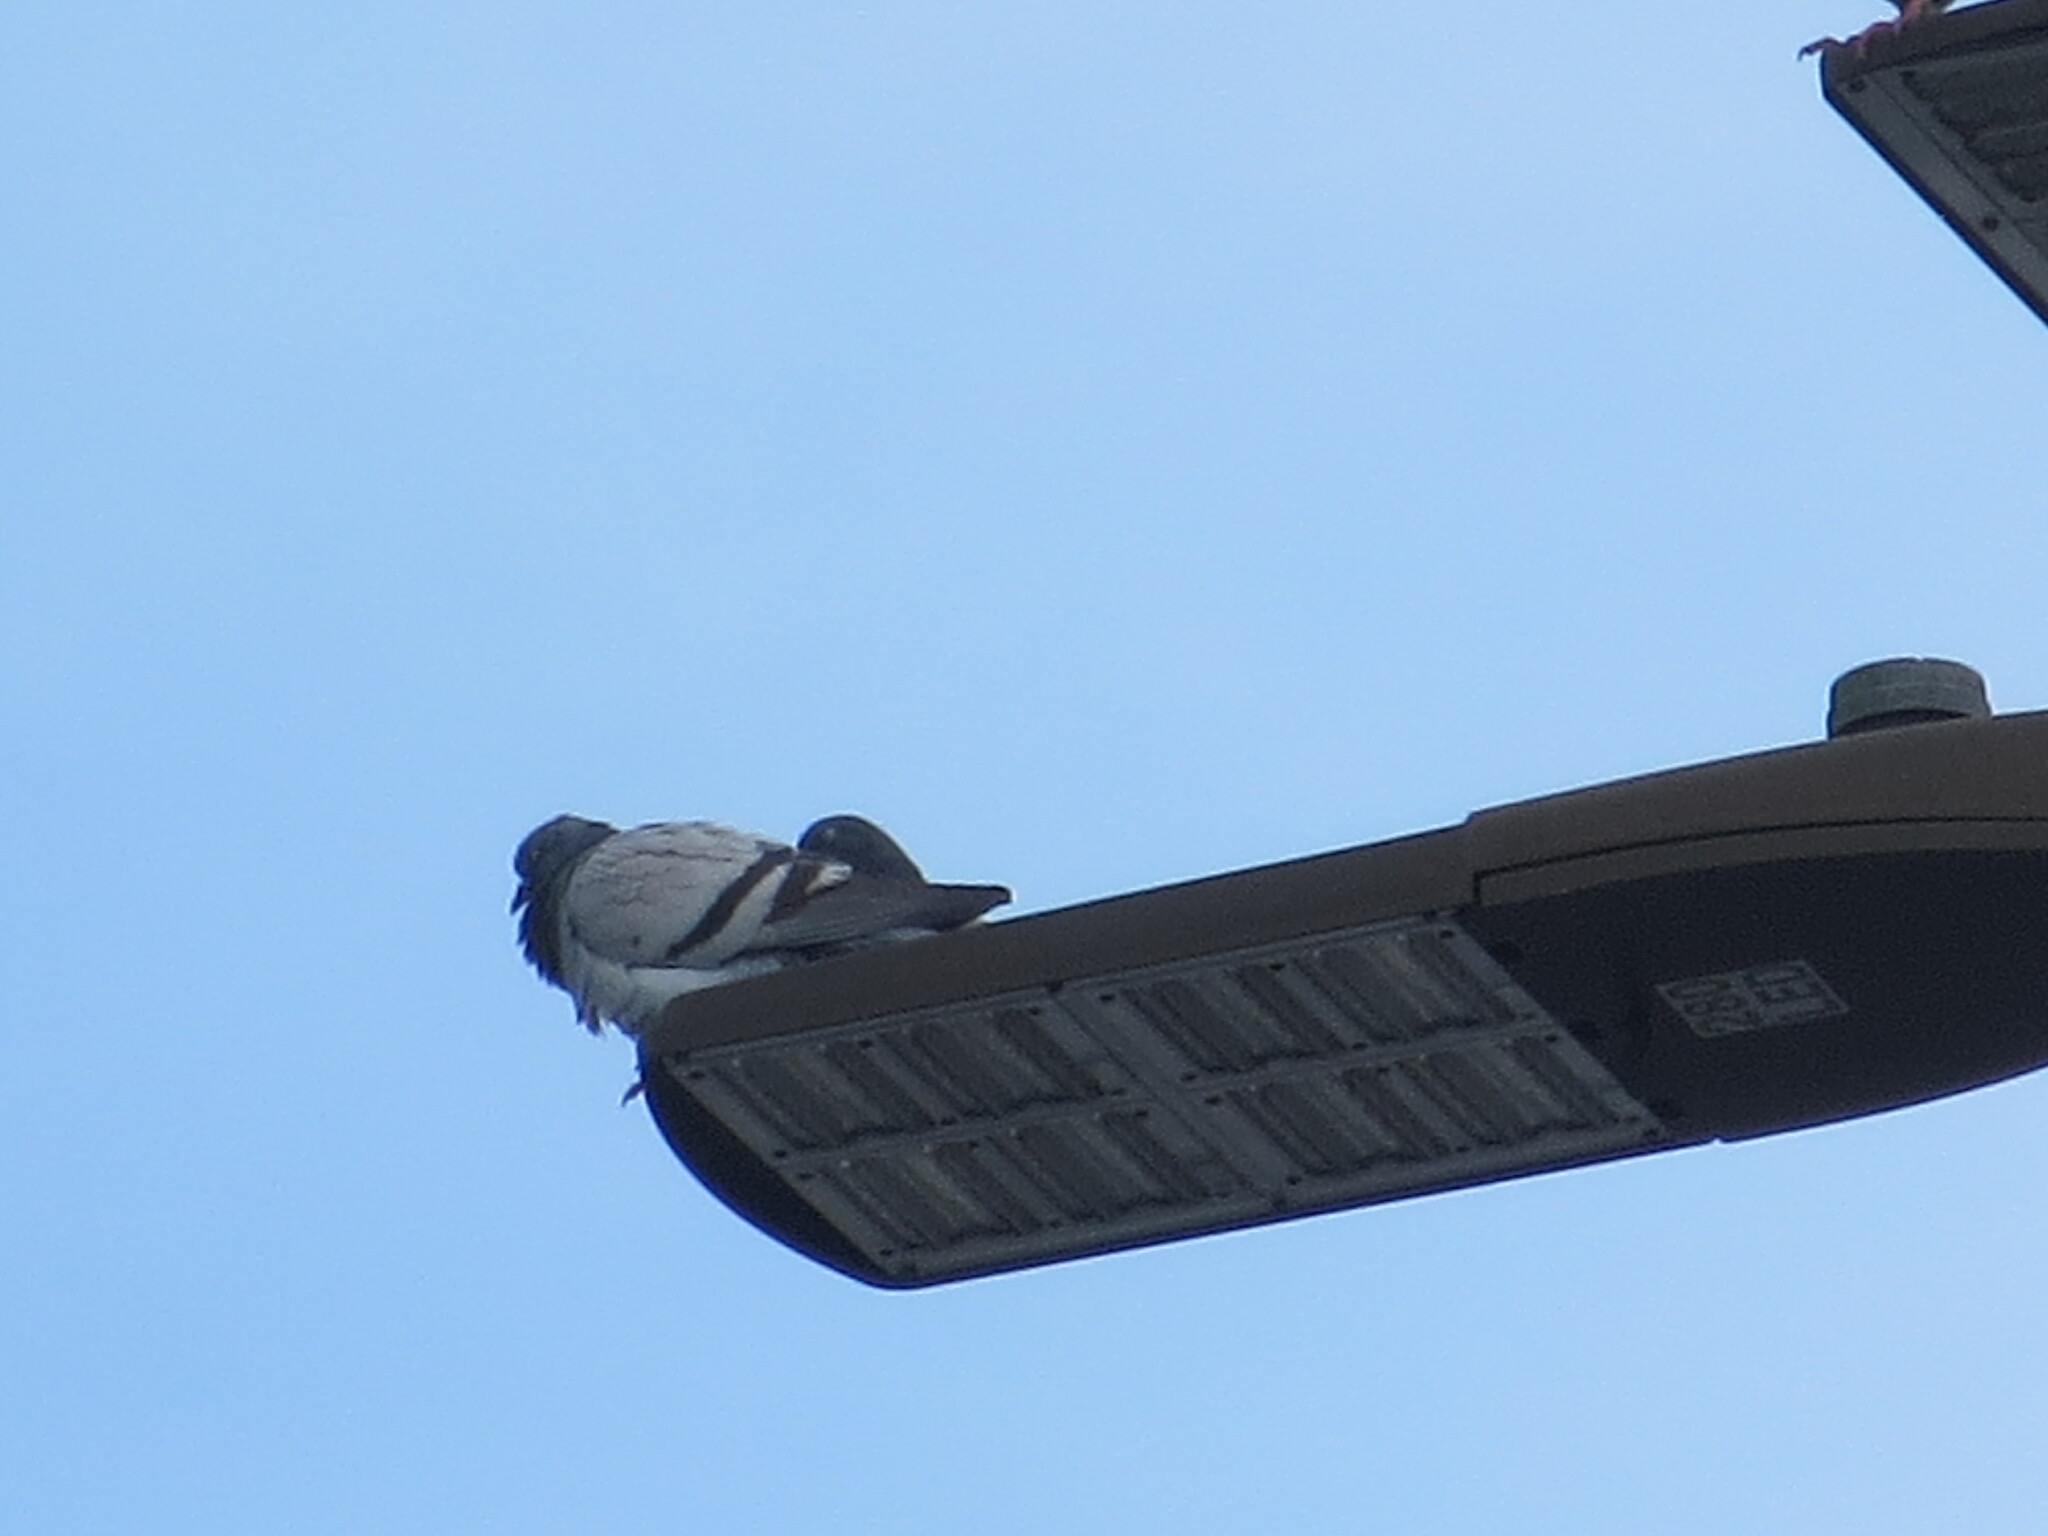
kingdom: Animalia
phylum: Chordata
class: Aves
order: Columbiformes
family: Columbidae
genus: Columba
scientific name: Columba livia
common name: Rock pigeon
